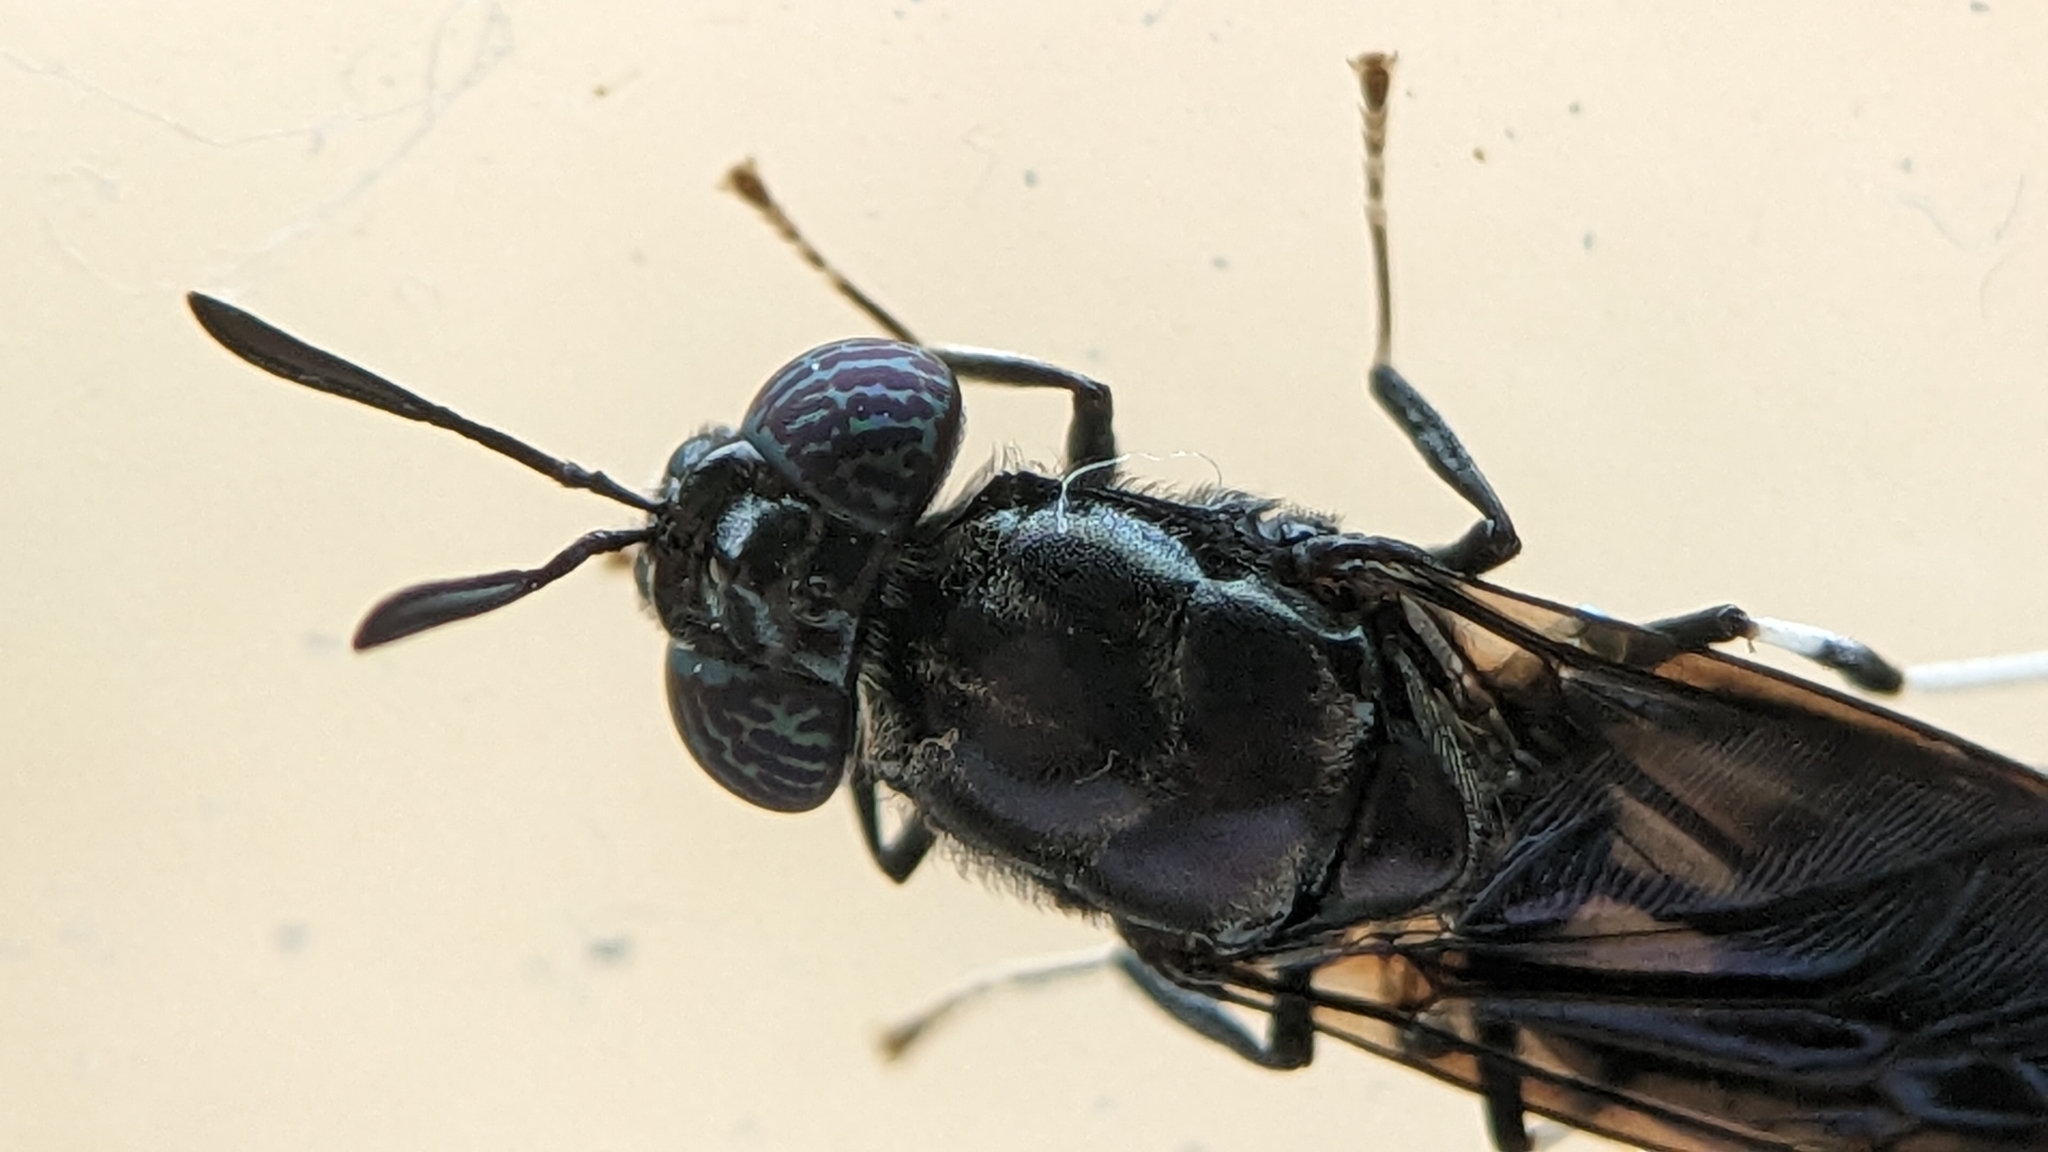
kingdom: Animalia
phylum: Arthropoda
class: Insecta
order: Diptera
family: Stratiomyidae
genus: Hermetia
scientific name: Hermetia illucens
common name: Black soldier fly
